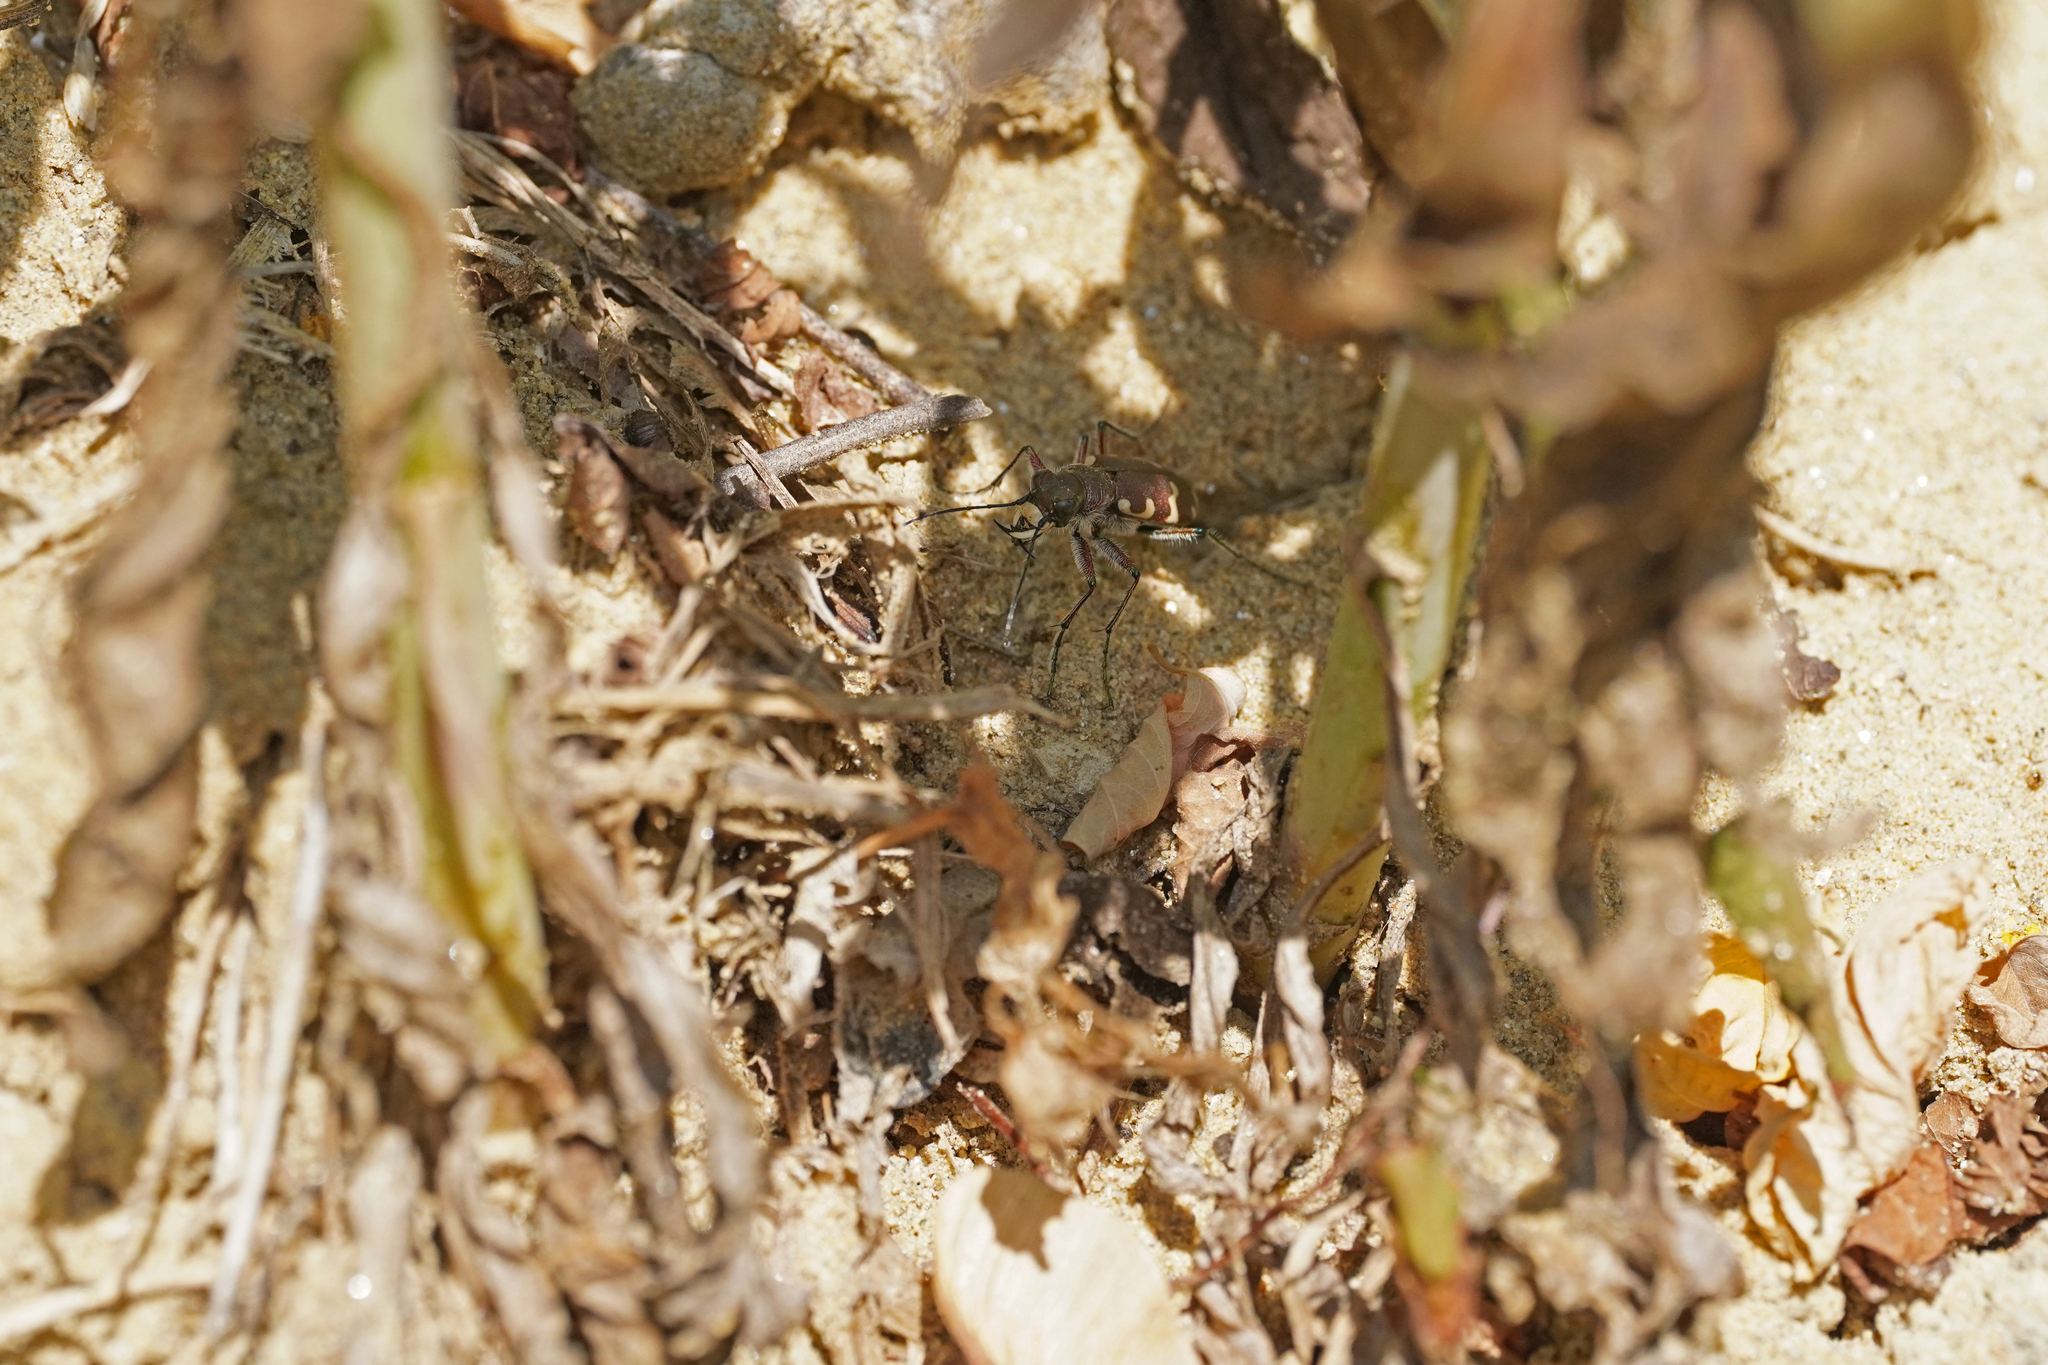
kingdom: Animalia
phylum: Arthropoda
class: Insecta
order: Coleoptera
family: Carabidae
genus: Cicindela
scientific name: Cicindela hybrida
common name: Northern dune tiger beetle
